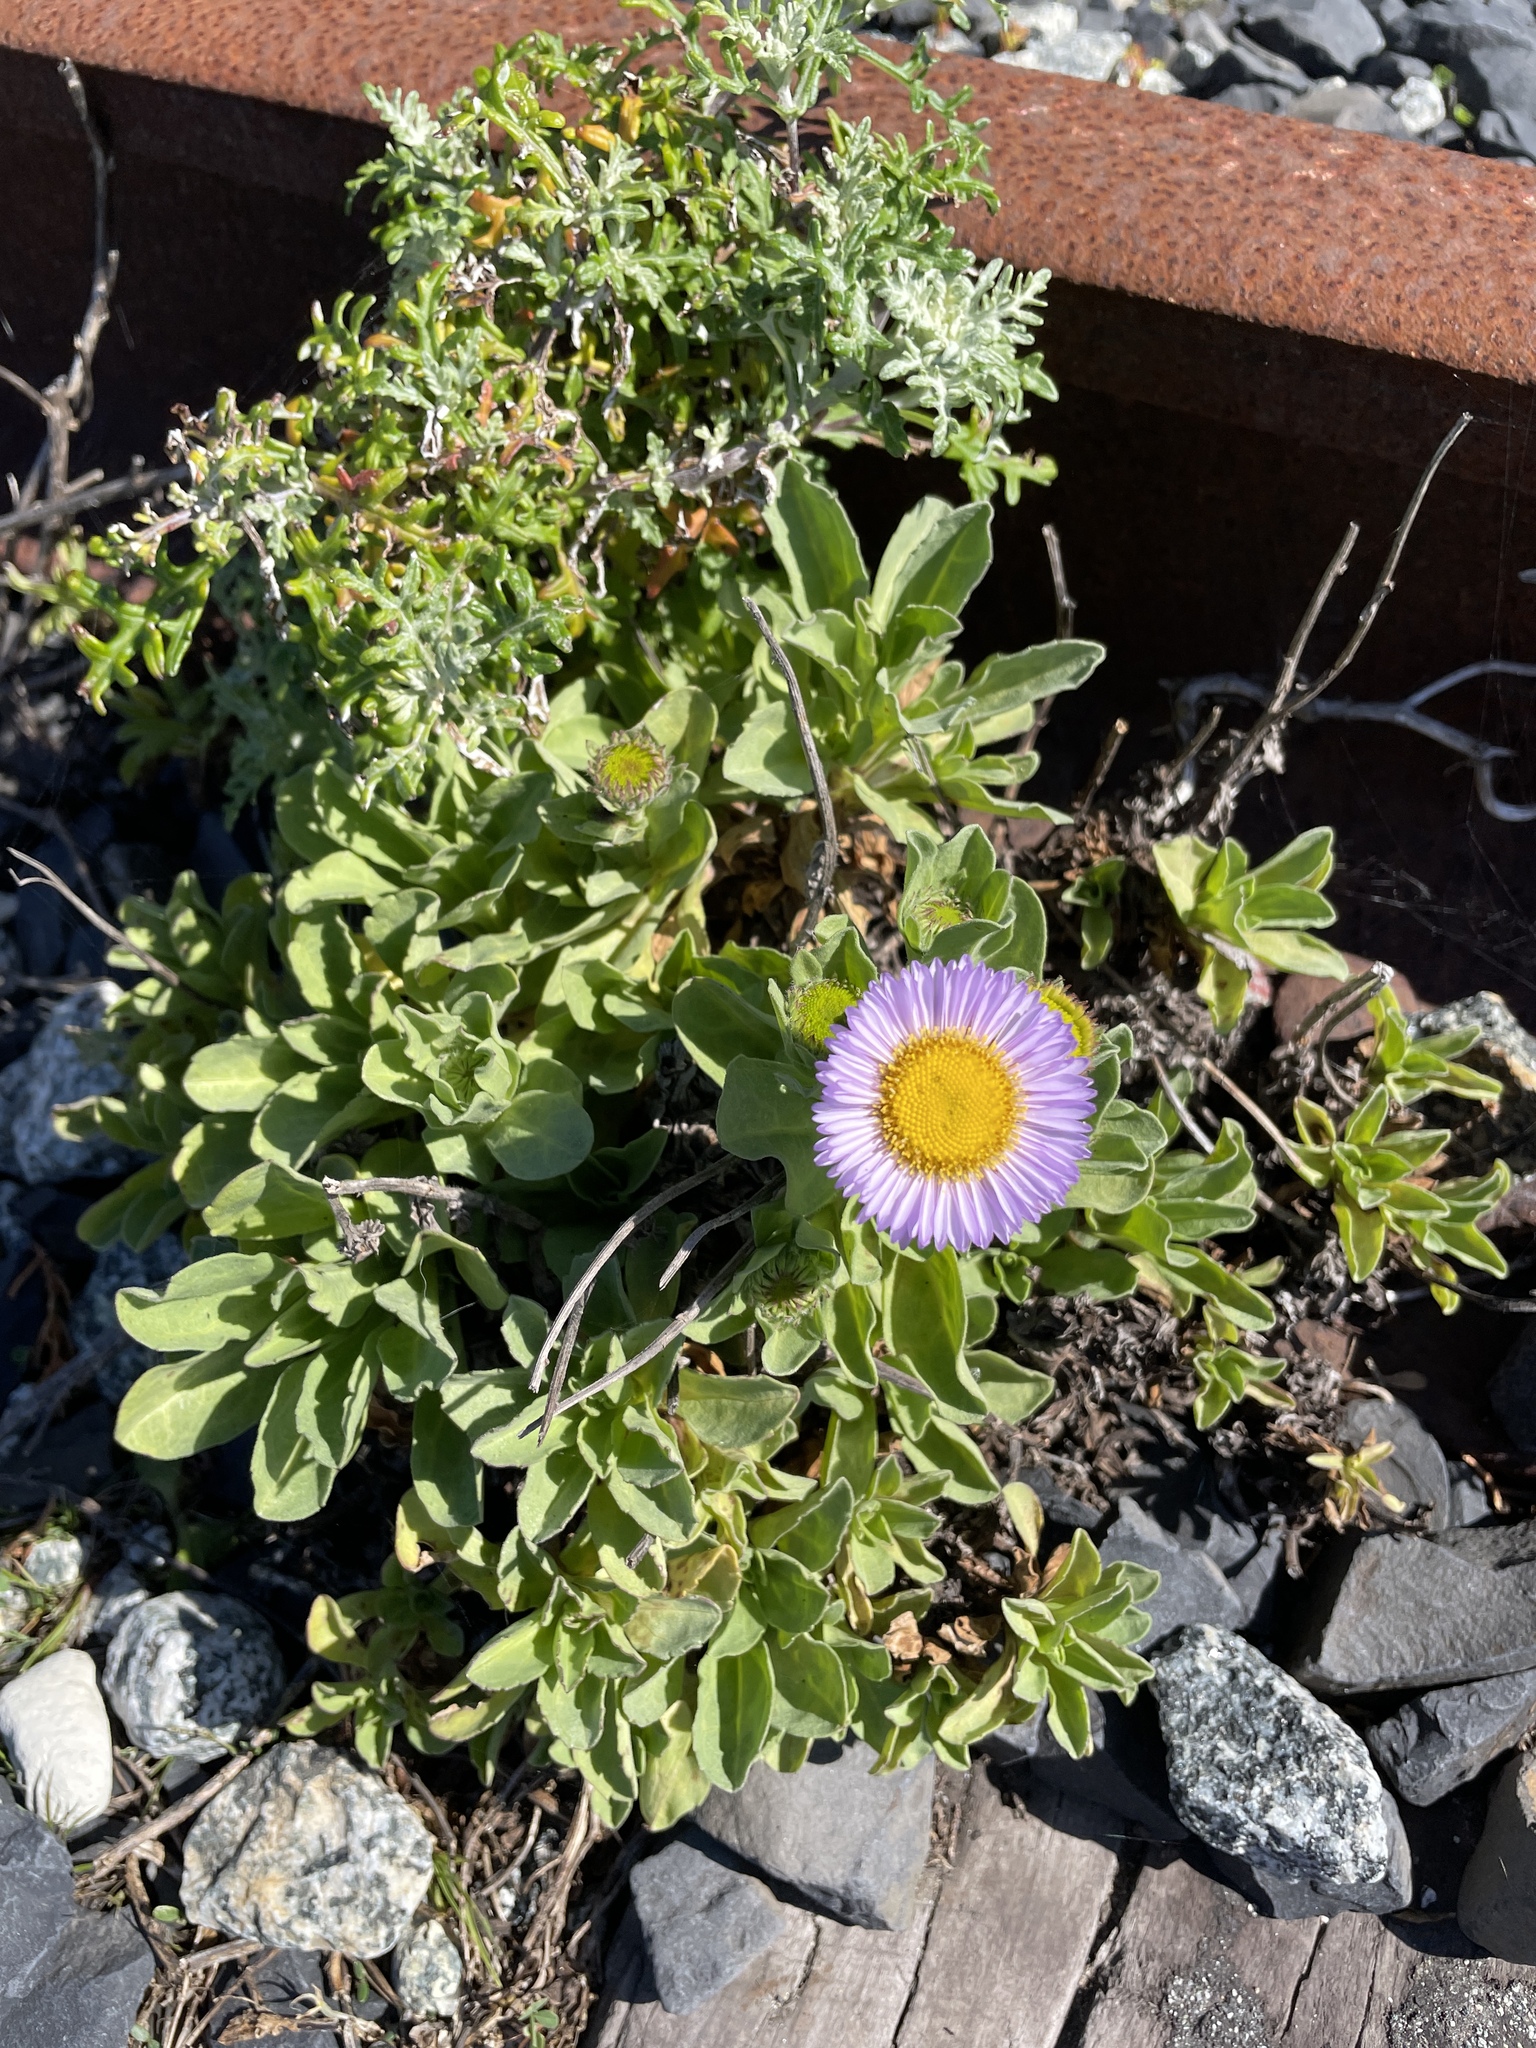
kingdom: Plantae
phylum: Tracheophyta
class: Magnoliopsida
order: Asterales
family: Asteraceae
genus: Erigeron
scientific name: Erigeron glaucus
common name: Seaside daisy
